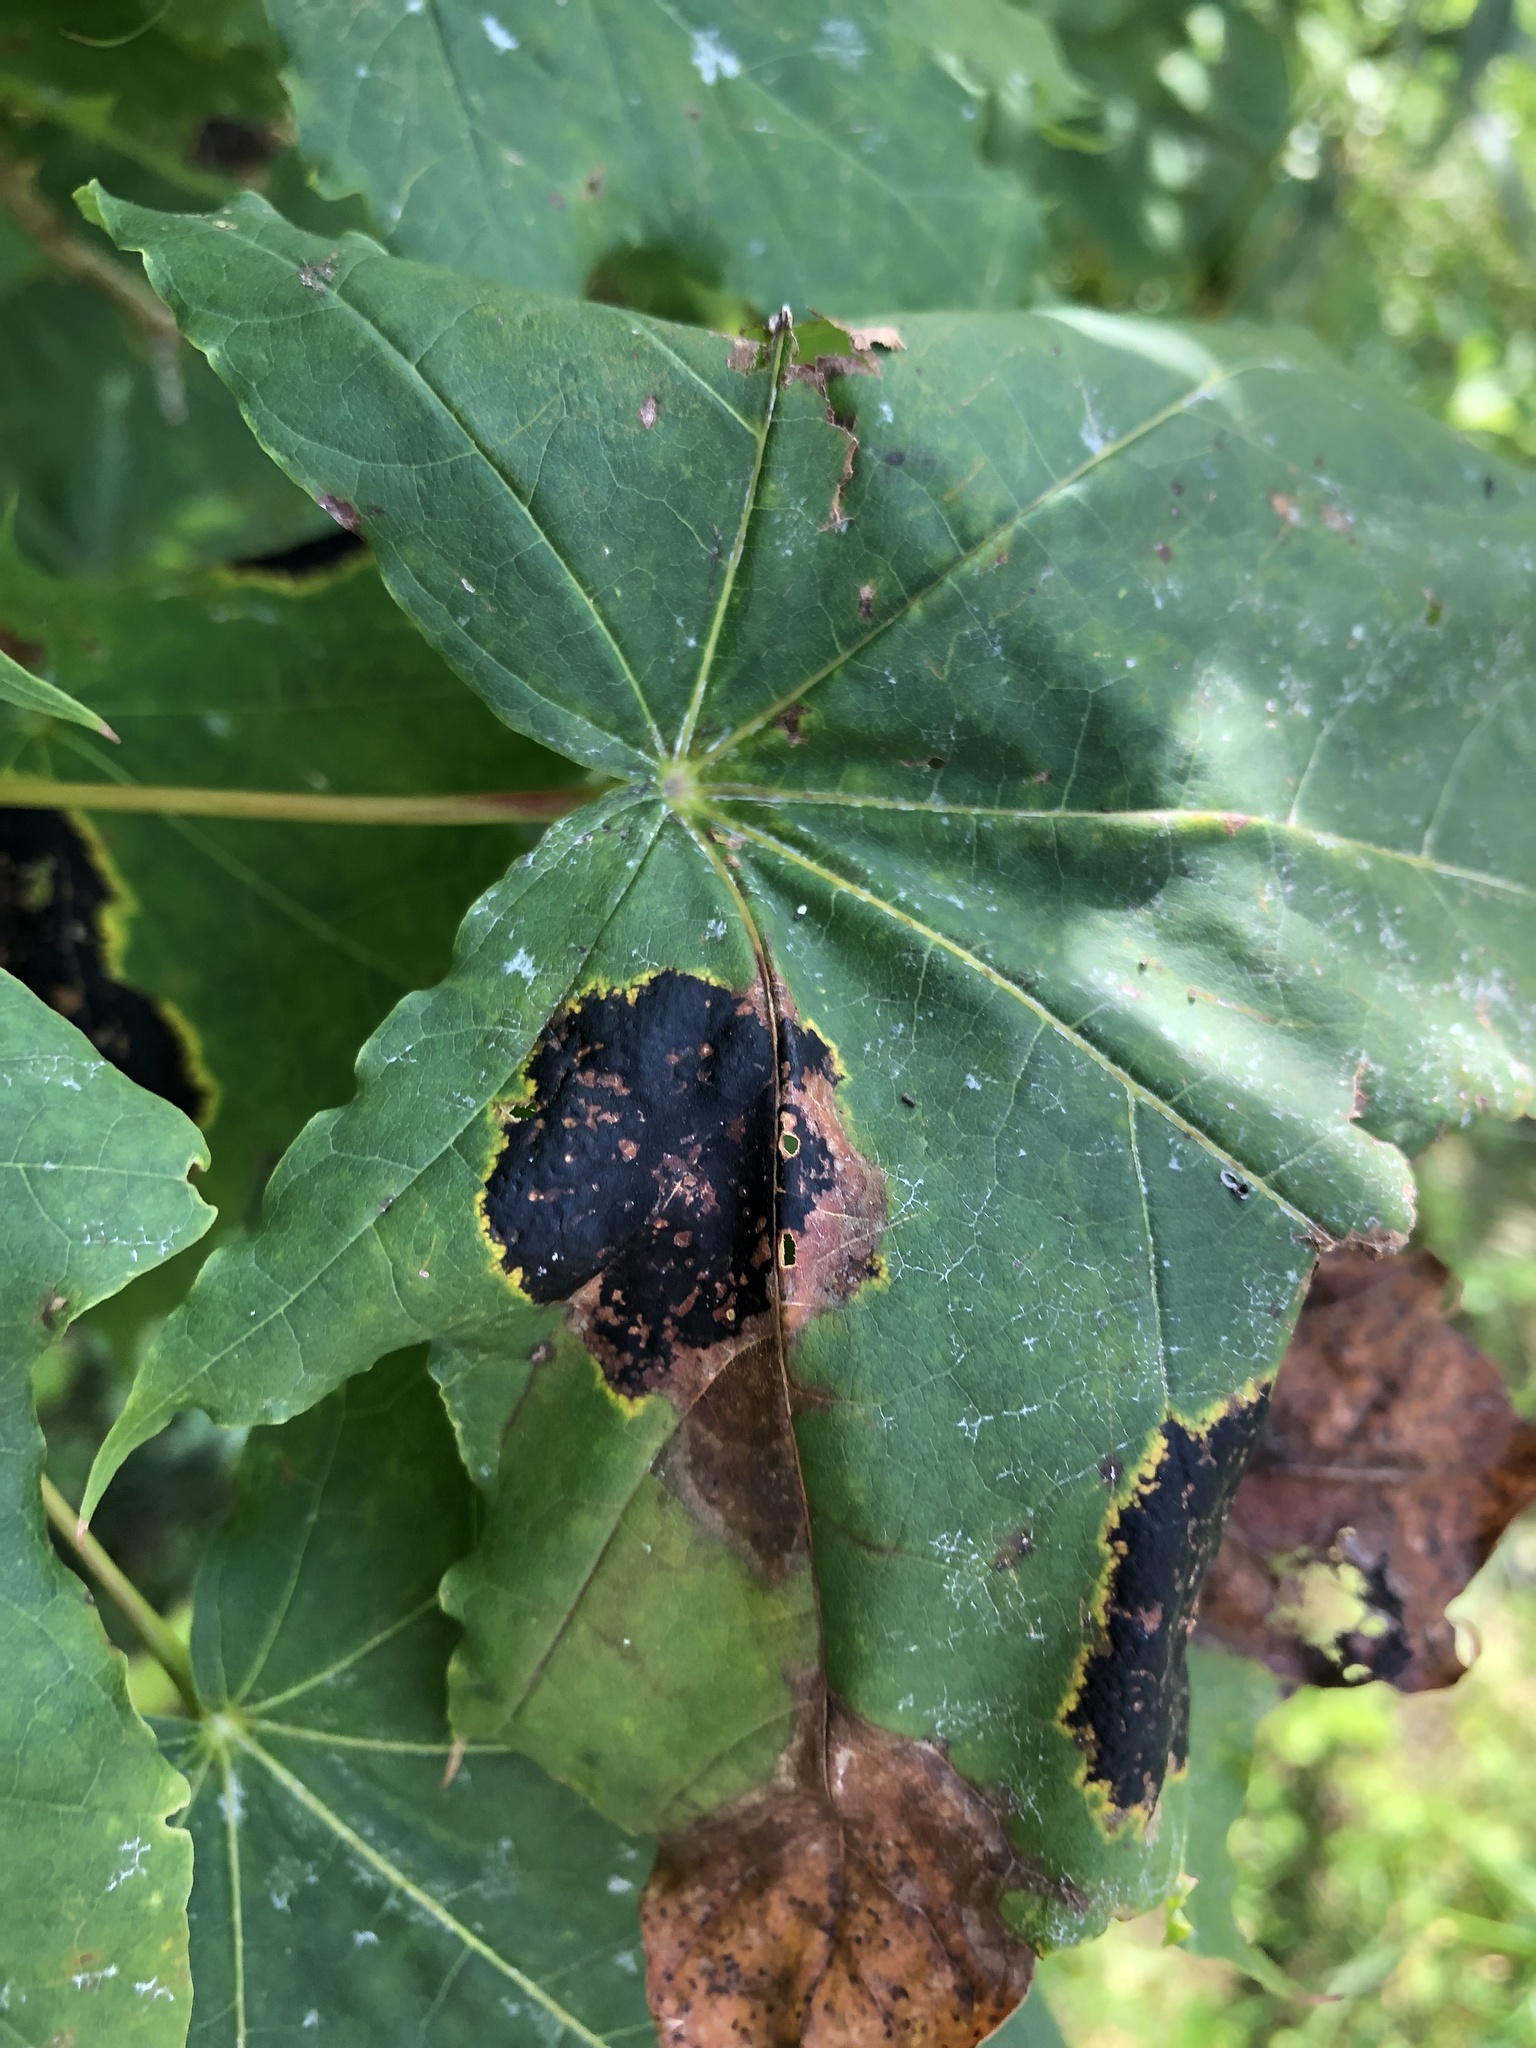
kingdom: Fungi
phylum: Ascomycota
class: Leotiomycetes
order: Rhytismatales
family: Rhytismataceae
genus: Rhytisma
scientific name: Rhytisma acerinum
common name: European tar spot
